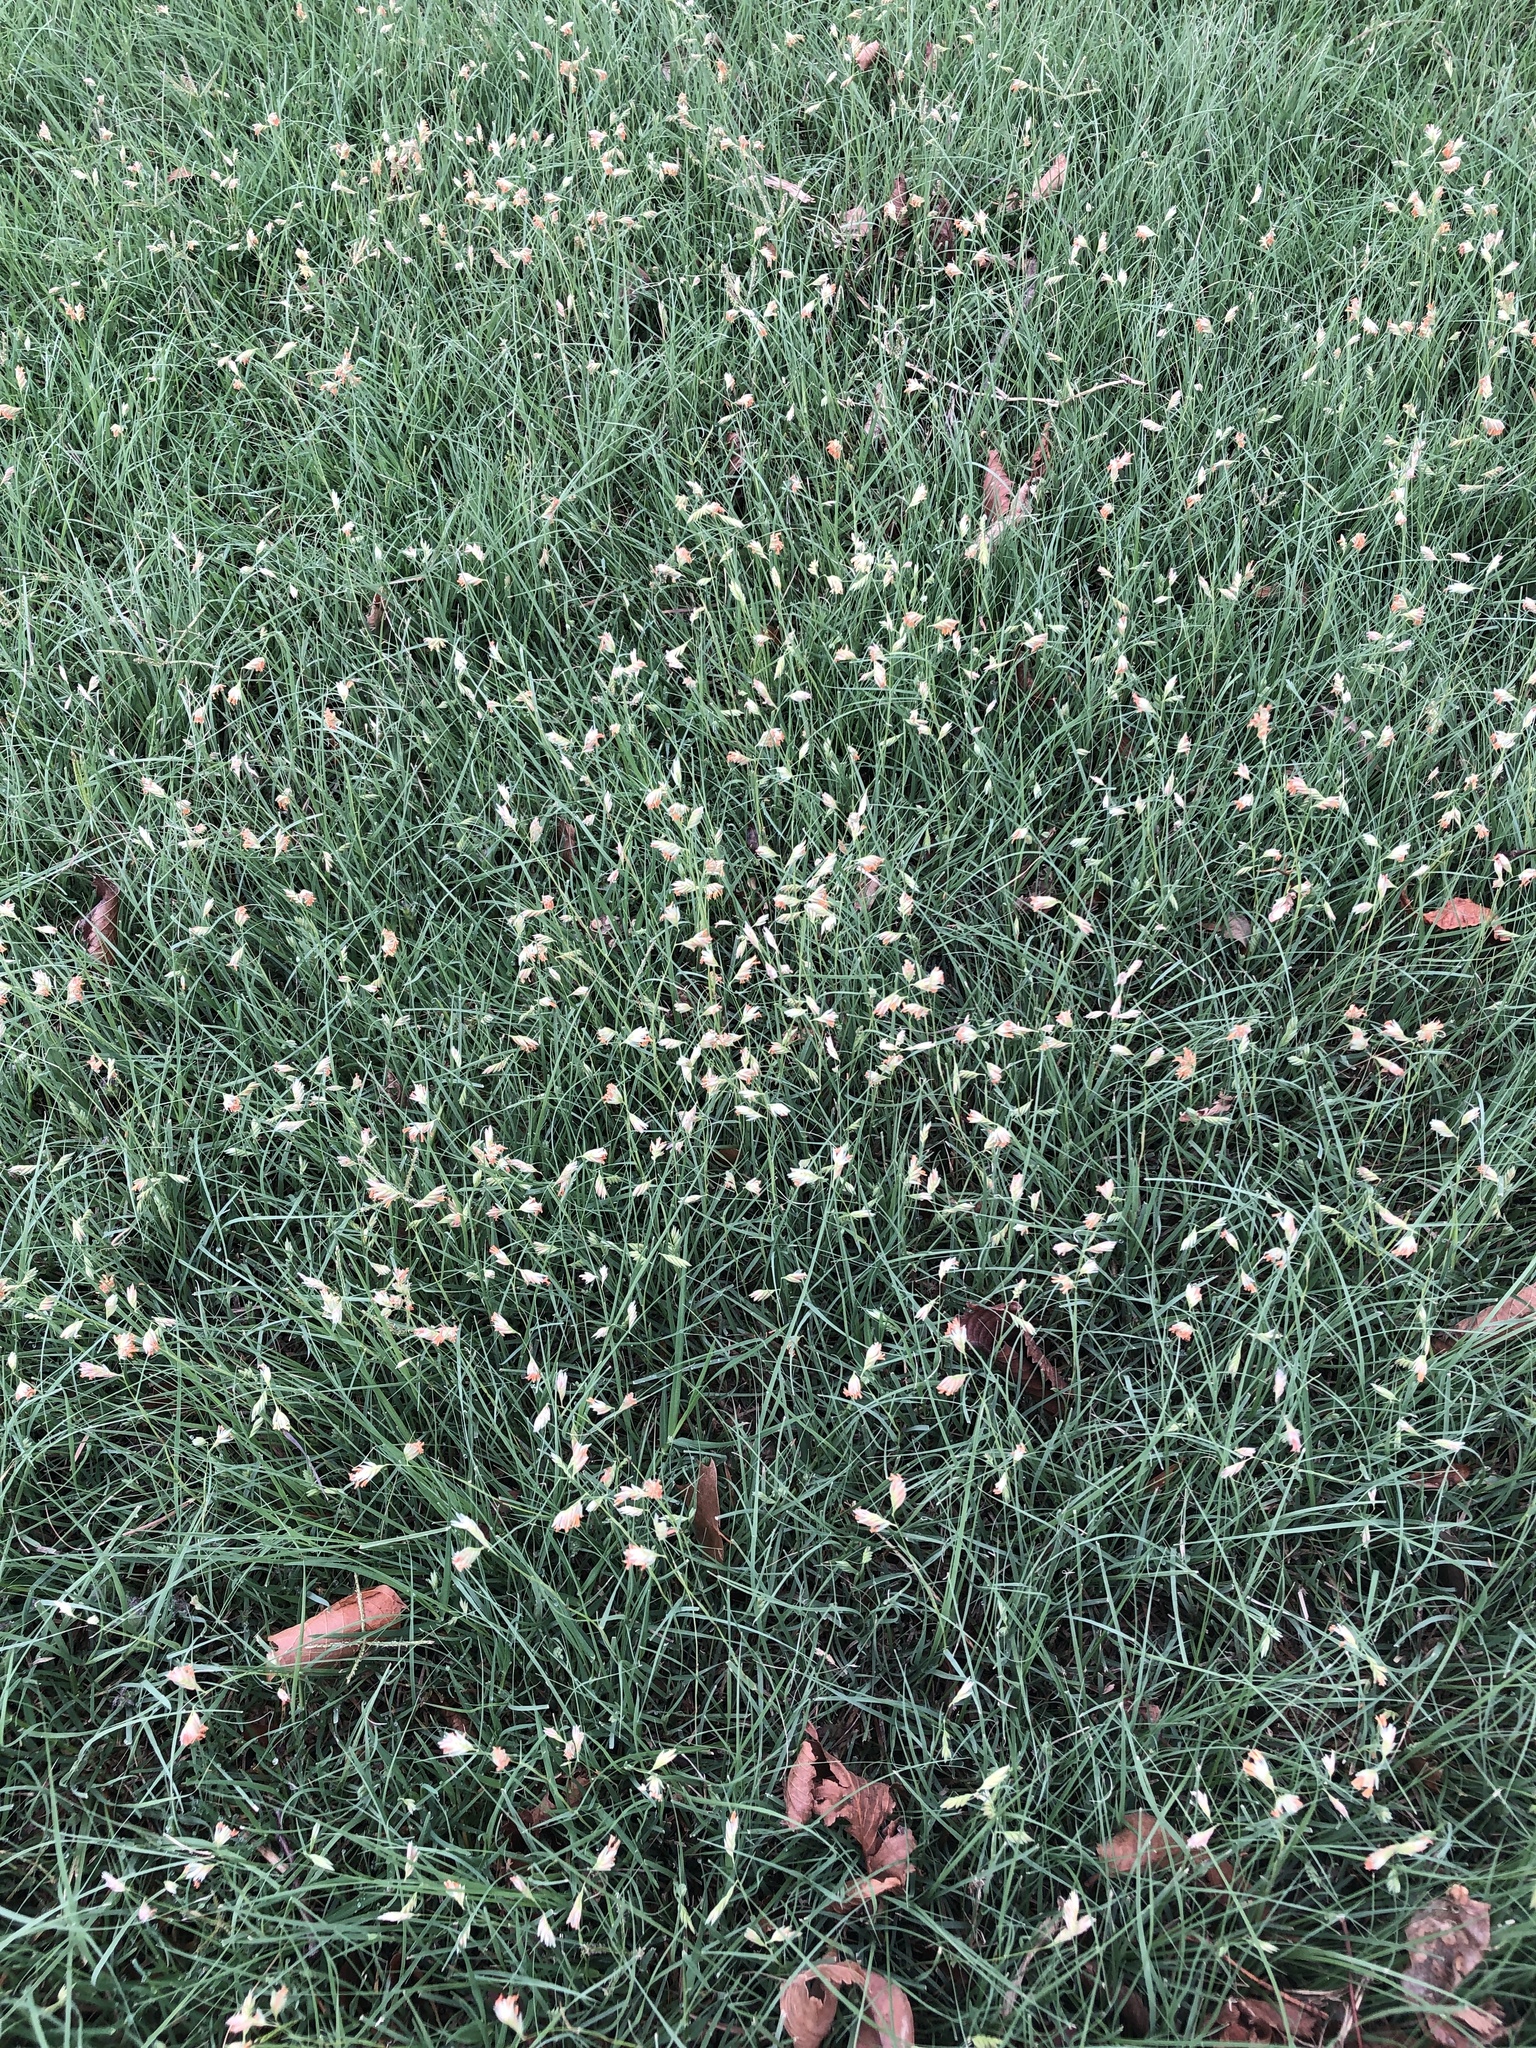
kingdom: Plantae
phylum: Tracheophyta
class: Liliopsida
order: Poales
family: Poaceae
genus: Bouteloua
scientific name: Bouteloua dactyloides
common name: Buffalo grass
